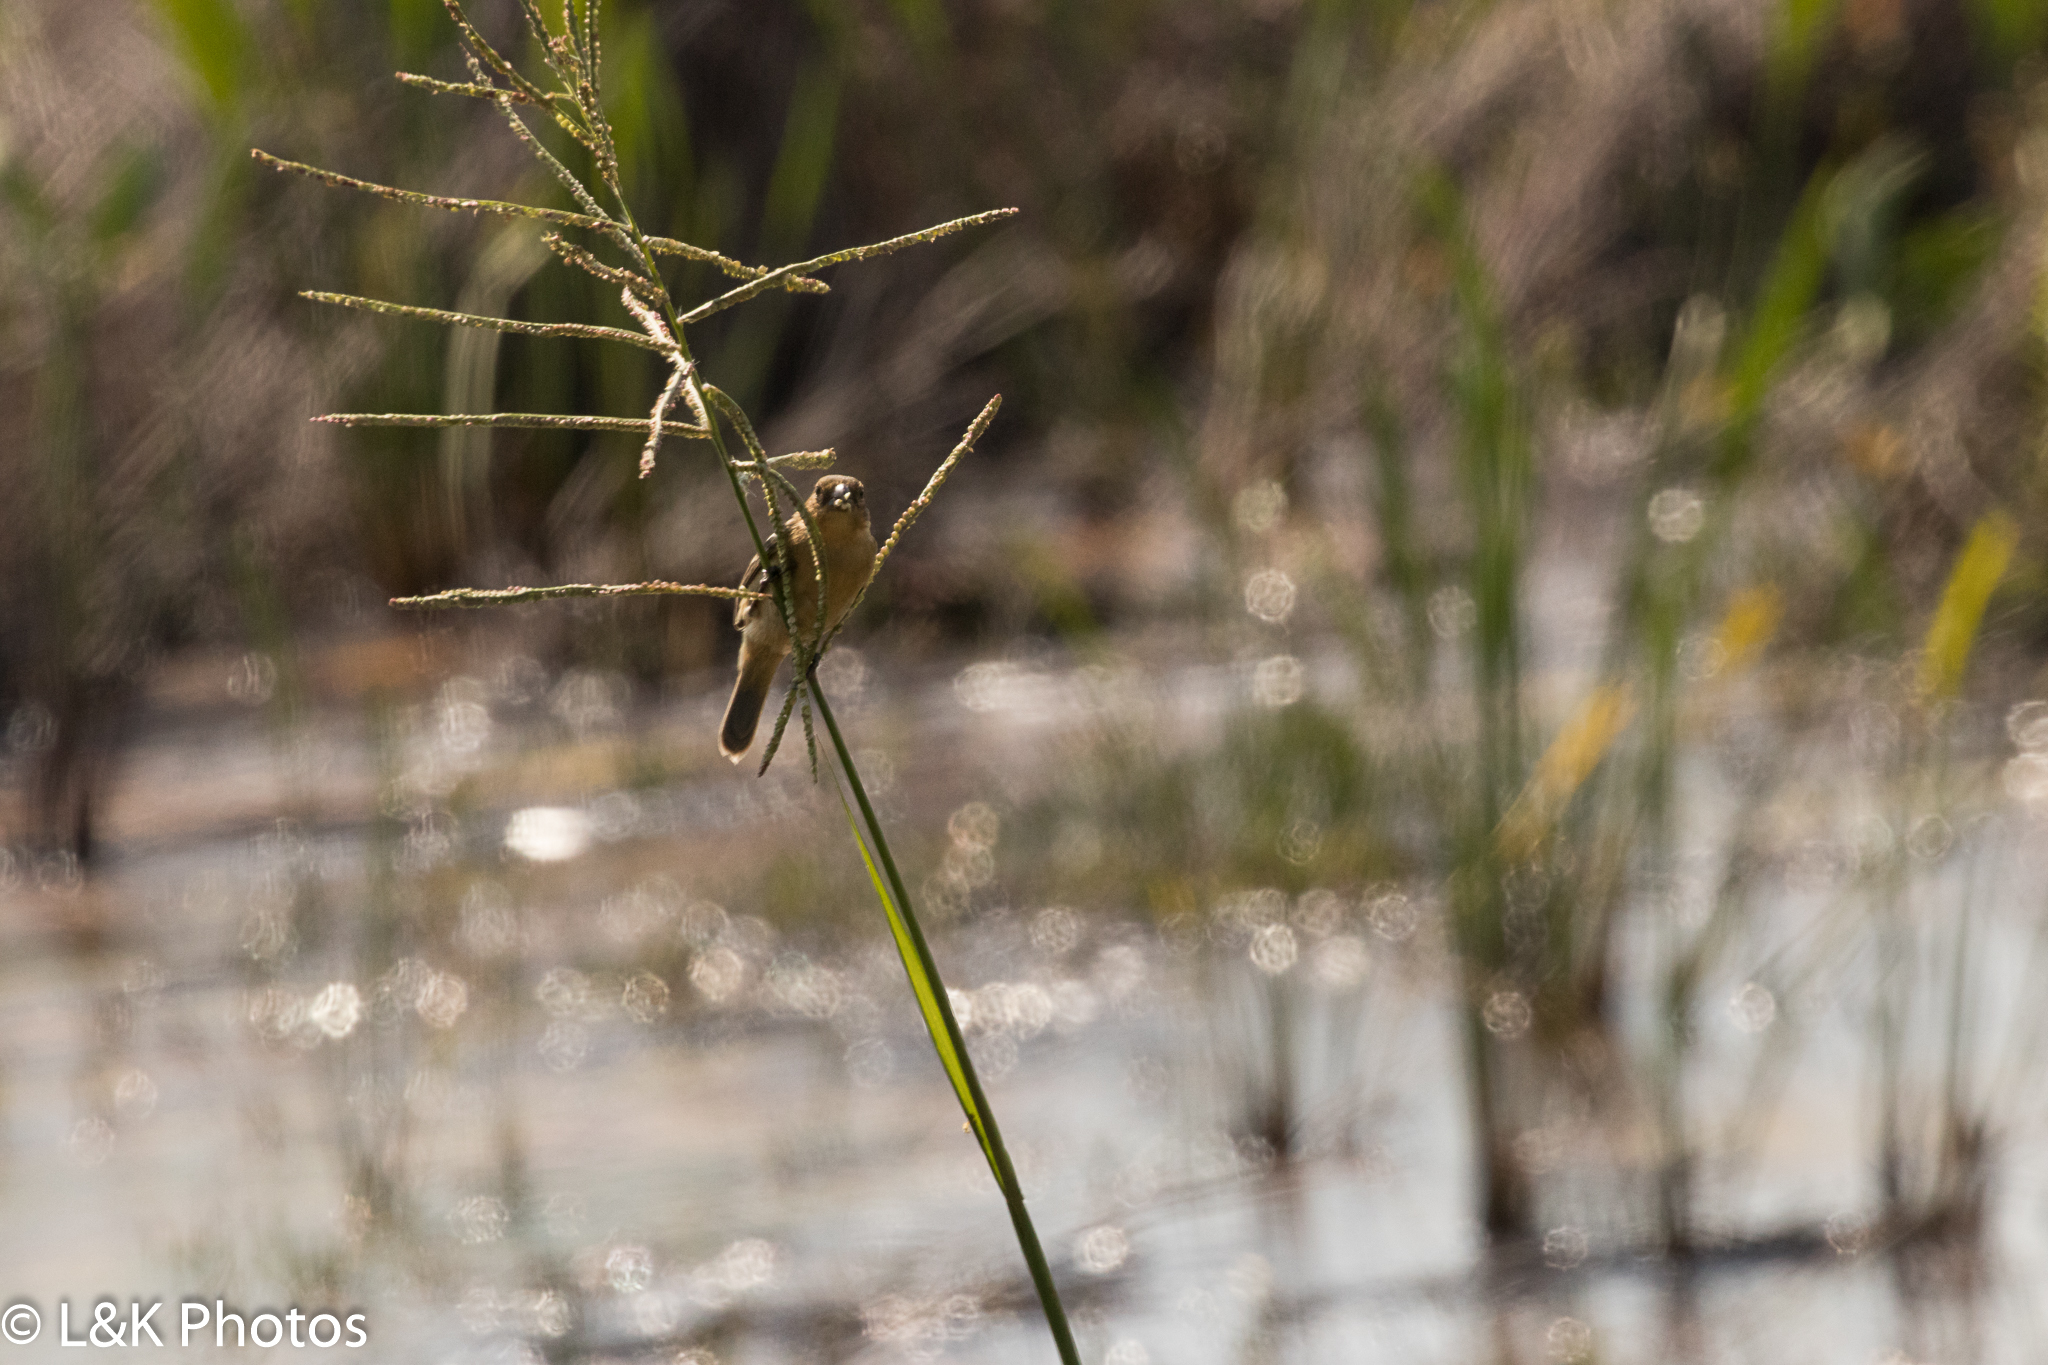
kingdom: Animalia
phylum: Chordata
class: Aves
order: Passeriformes
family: Thraupidae
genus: Sporophila
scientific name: Sporophila morelleti
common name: Morelet's seedeater
